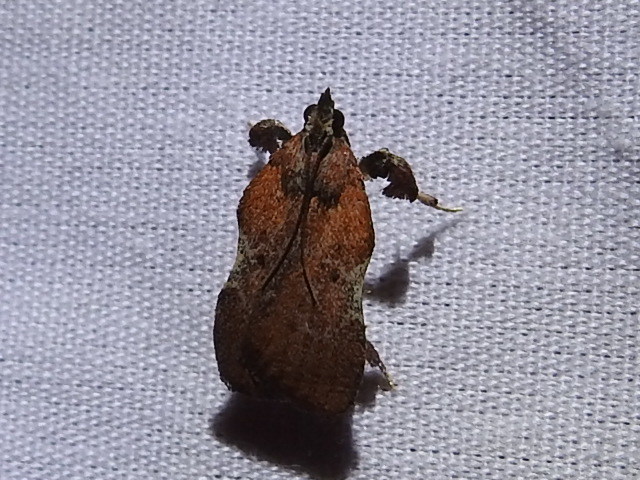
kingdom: Animalia
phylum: Arthropoda
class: Insecta
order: Lepidoptera
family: Pyralidae
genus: Galasa
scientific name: Galasa nigripunctalis
